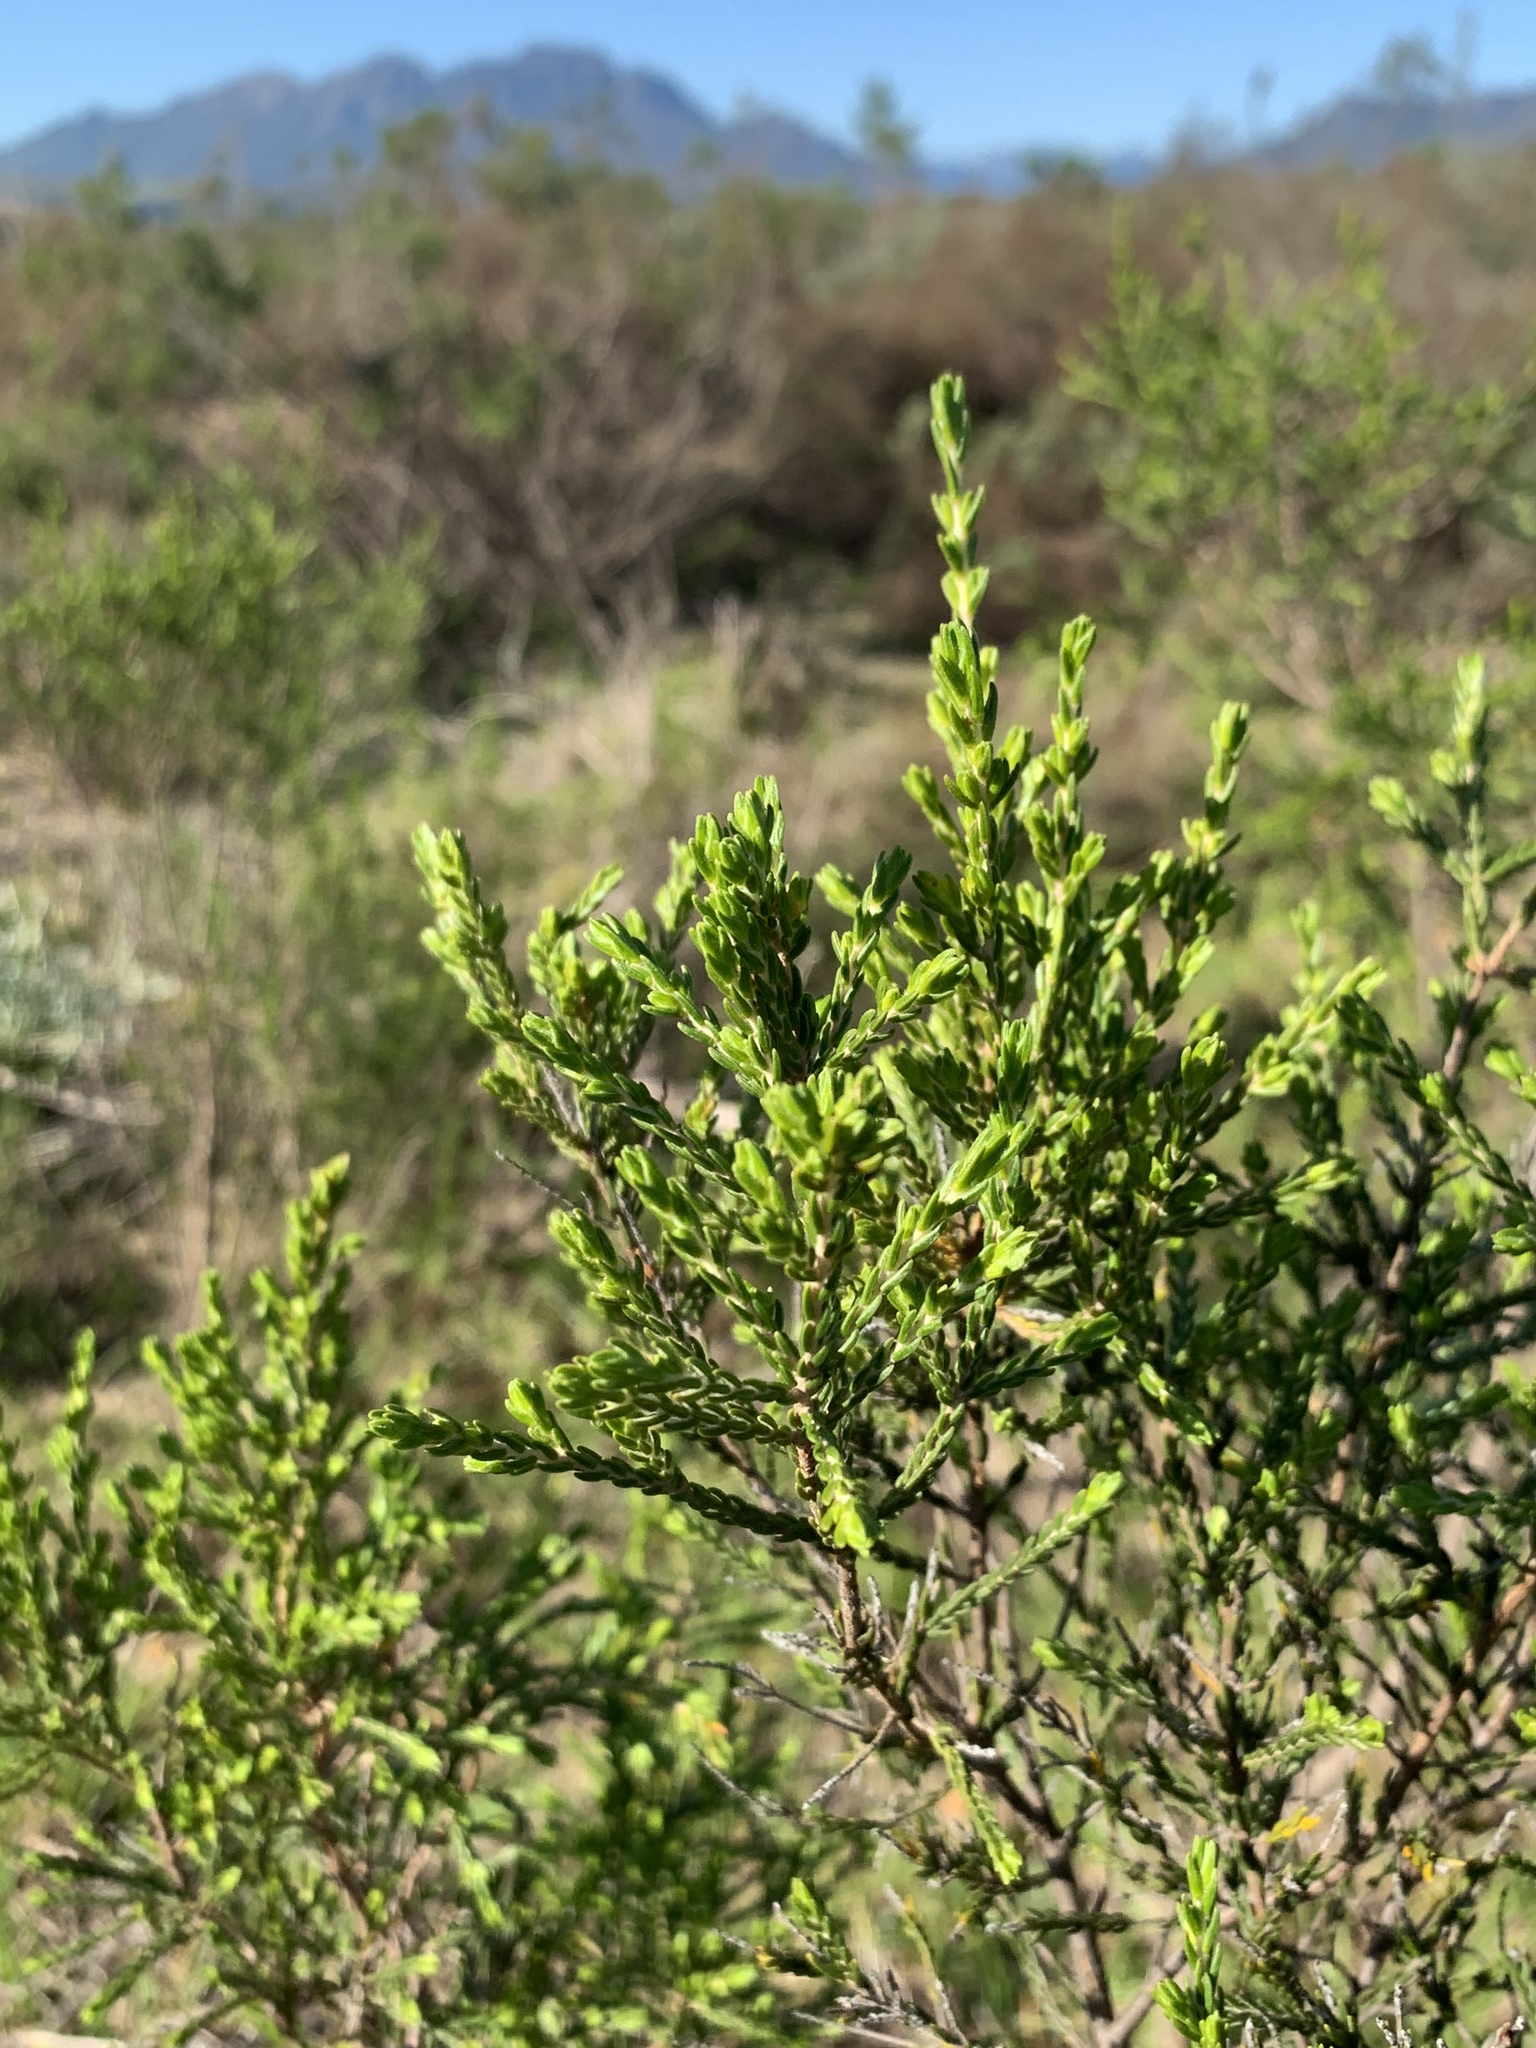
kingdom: Plantae
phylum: Tracheophyta
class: Magnoliopsida
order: Malvales
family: Thymelaeaceae
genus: Passerina
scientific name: Passerina corymbosa
